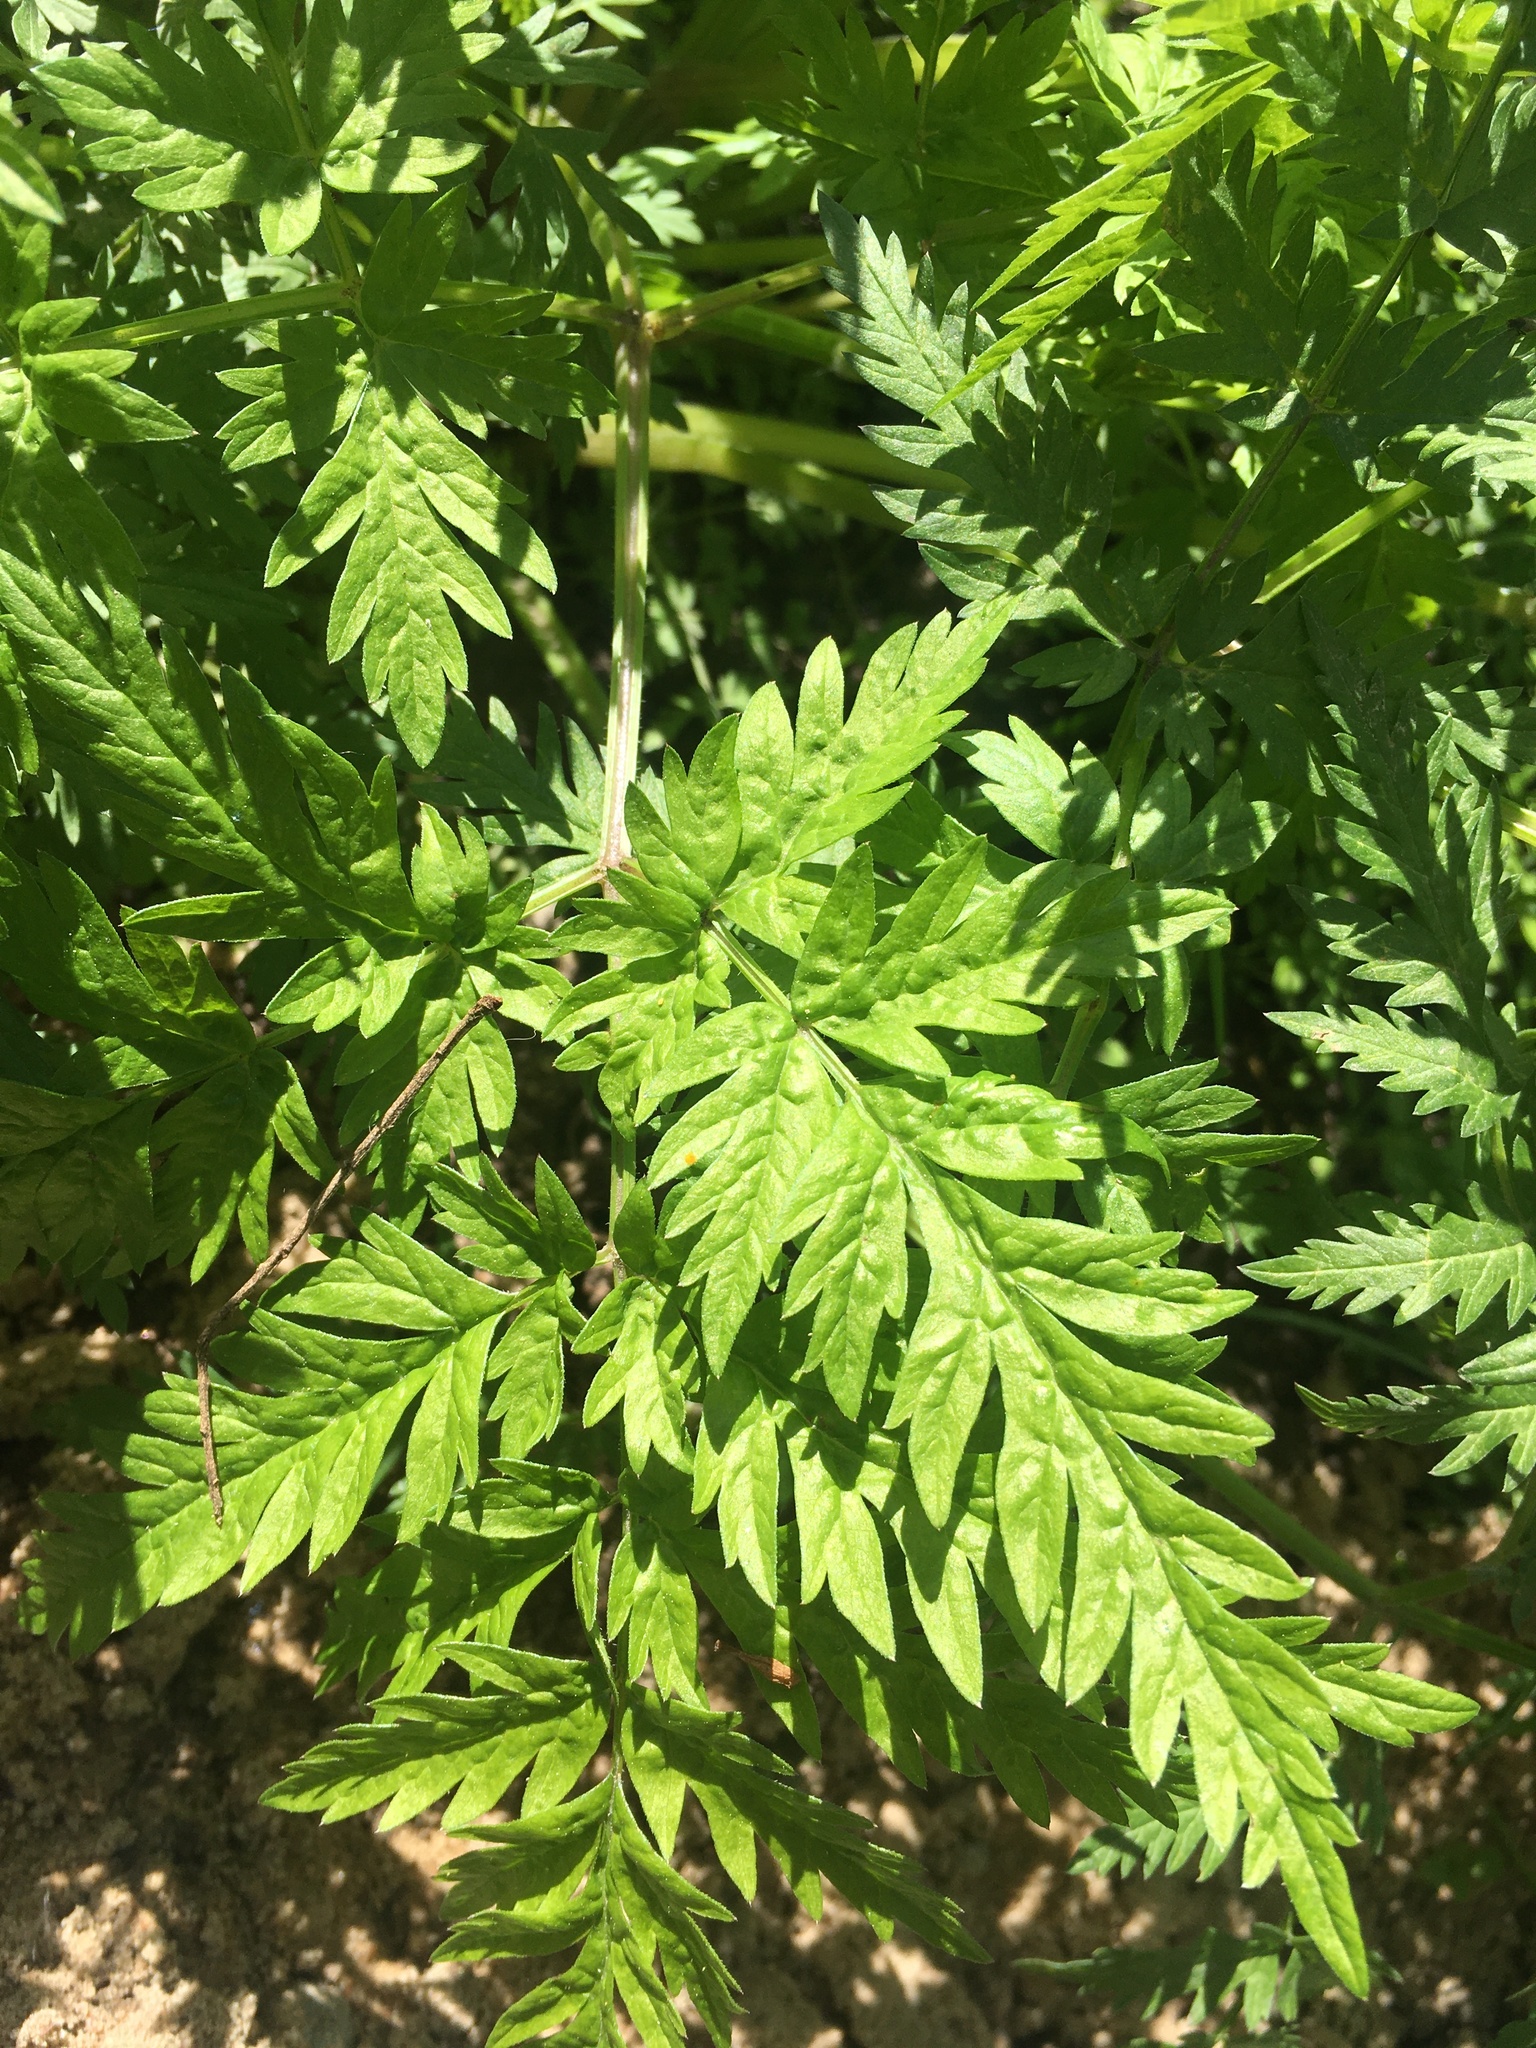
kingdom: Plantae
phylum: Tracheophyta
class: Magnoliopsida
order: Apiales
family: Apiaceae
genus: Anthriscus
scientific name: Anthriscus sylvestris
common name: Cow parsley
